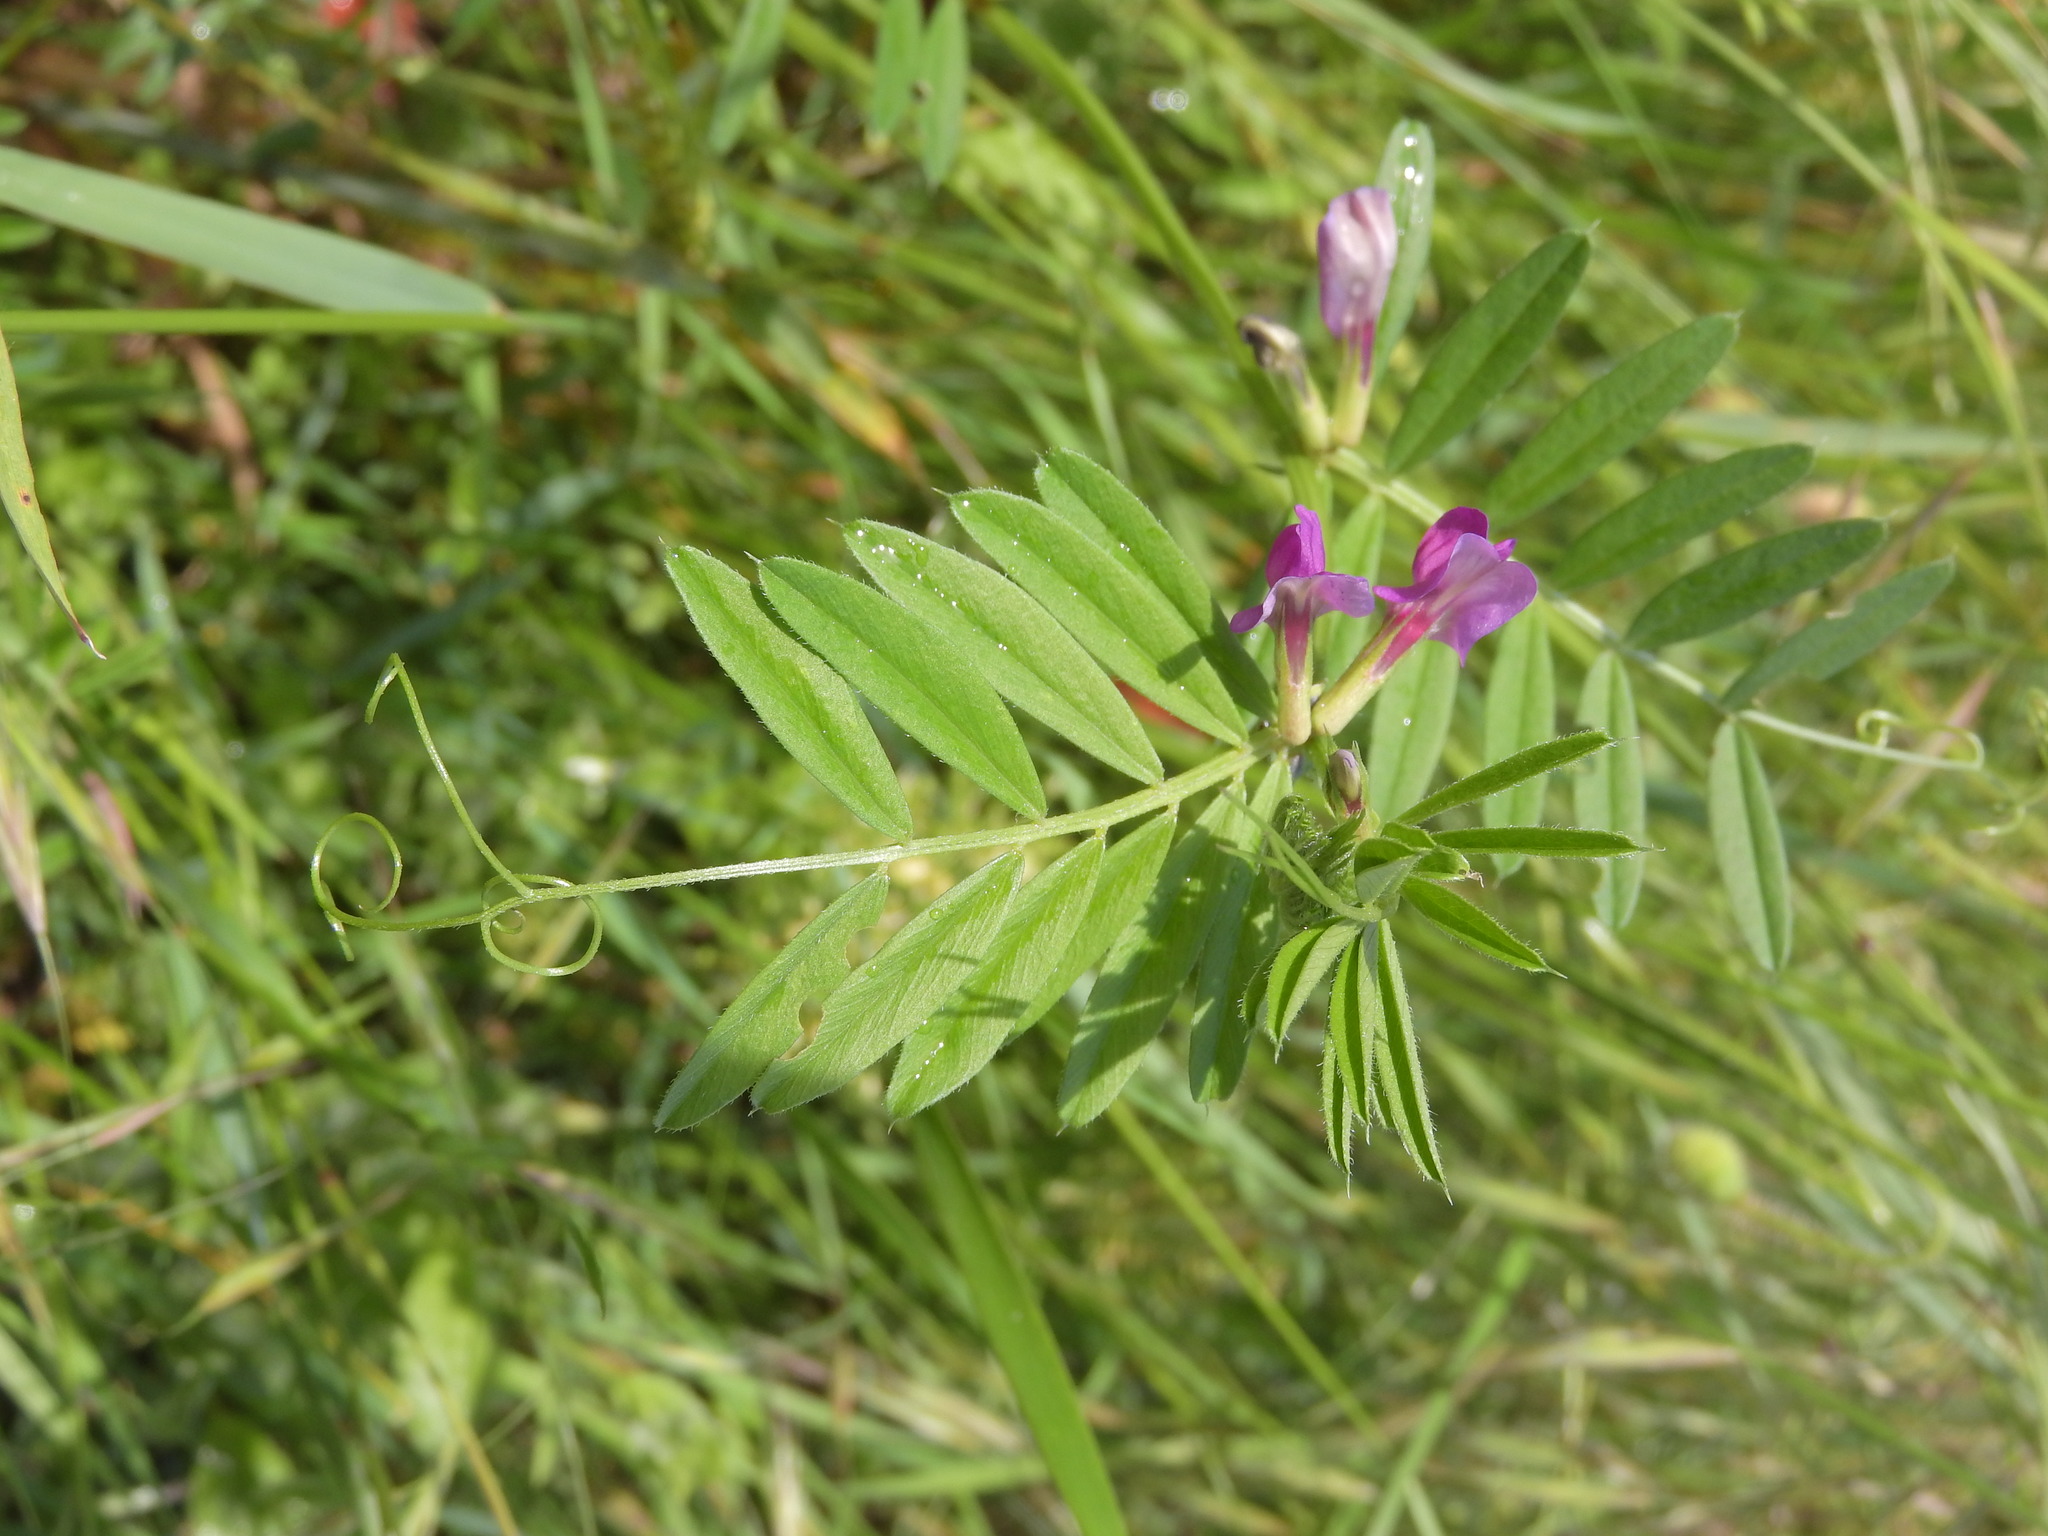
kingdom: Plantae
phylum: Tracheophyta
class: Magnoliopsida
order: Fabales
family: Fabaceae
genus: Vicia
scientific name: Vicia sativa
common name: Garden vetch
